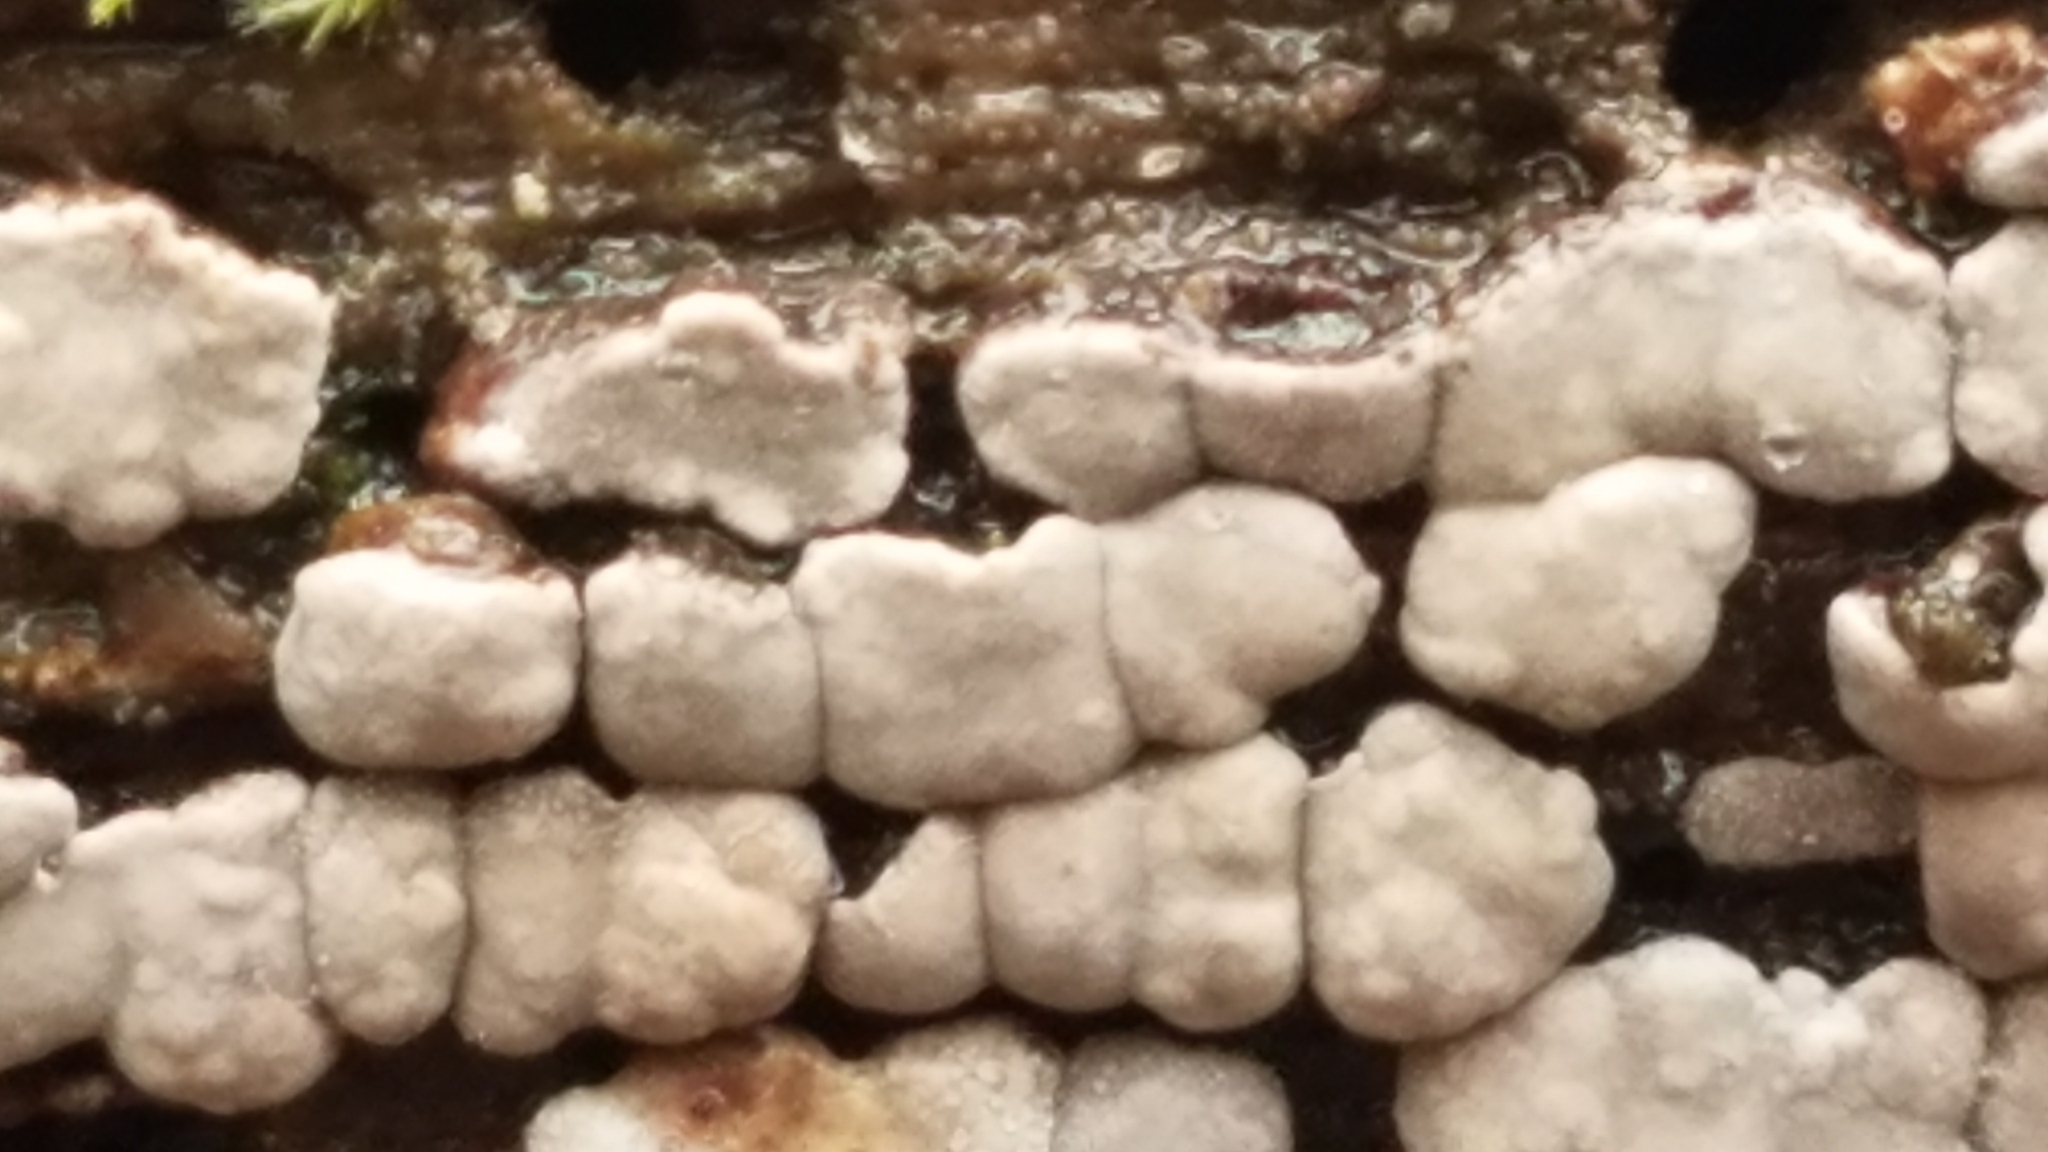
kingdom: Fungi
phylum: Basidiomycota
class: Agaricomycetes
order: Russulales
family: Stereaceae
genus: Xylobolus
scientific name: Xylobolus frustulatus
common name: Ceramic parchment
